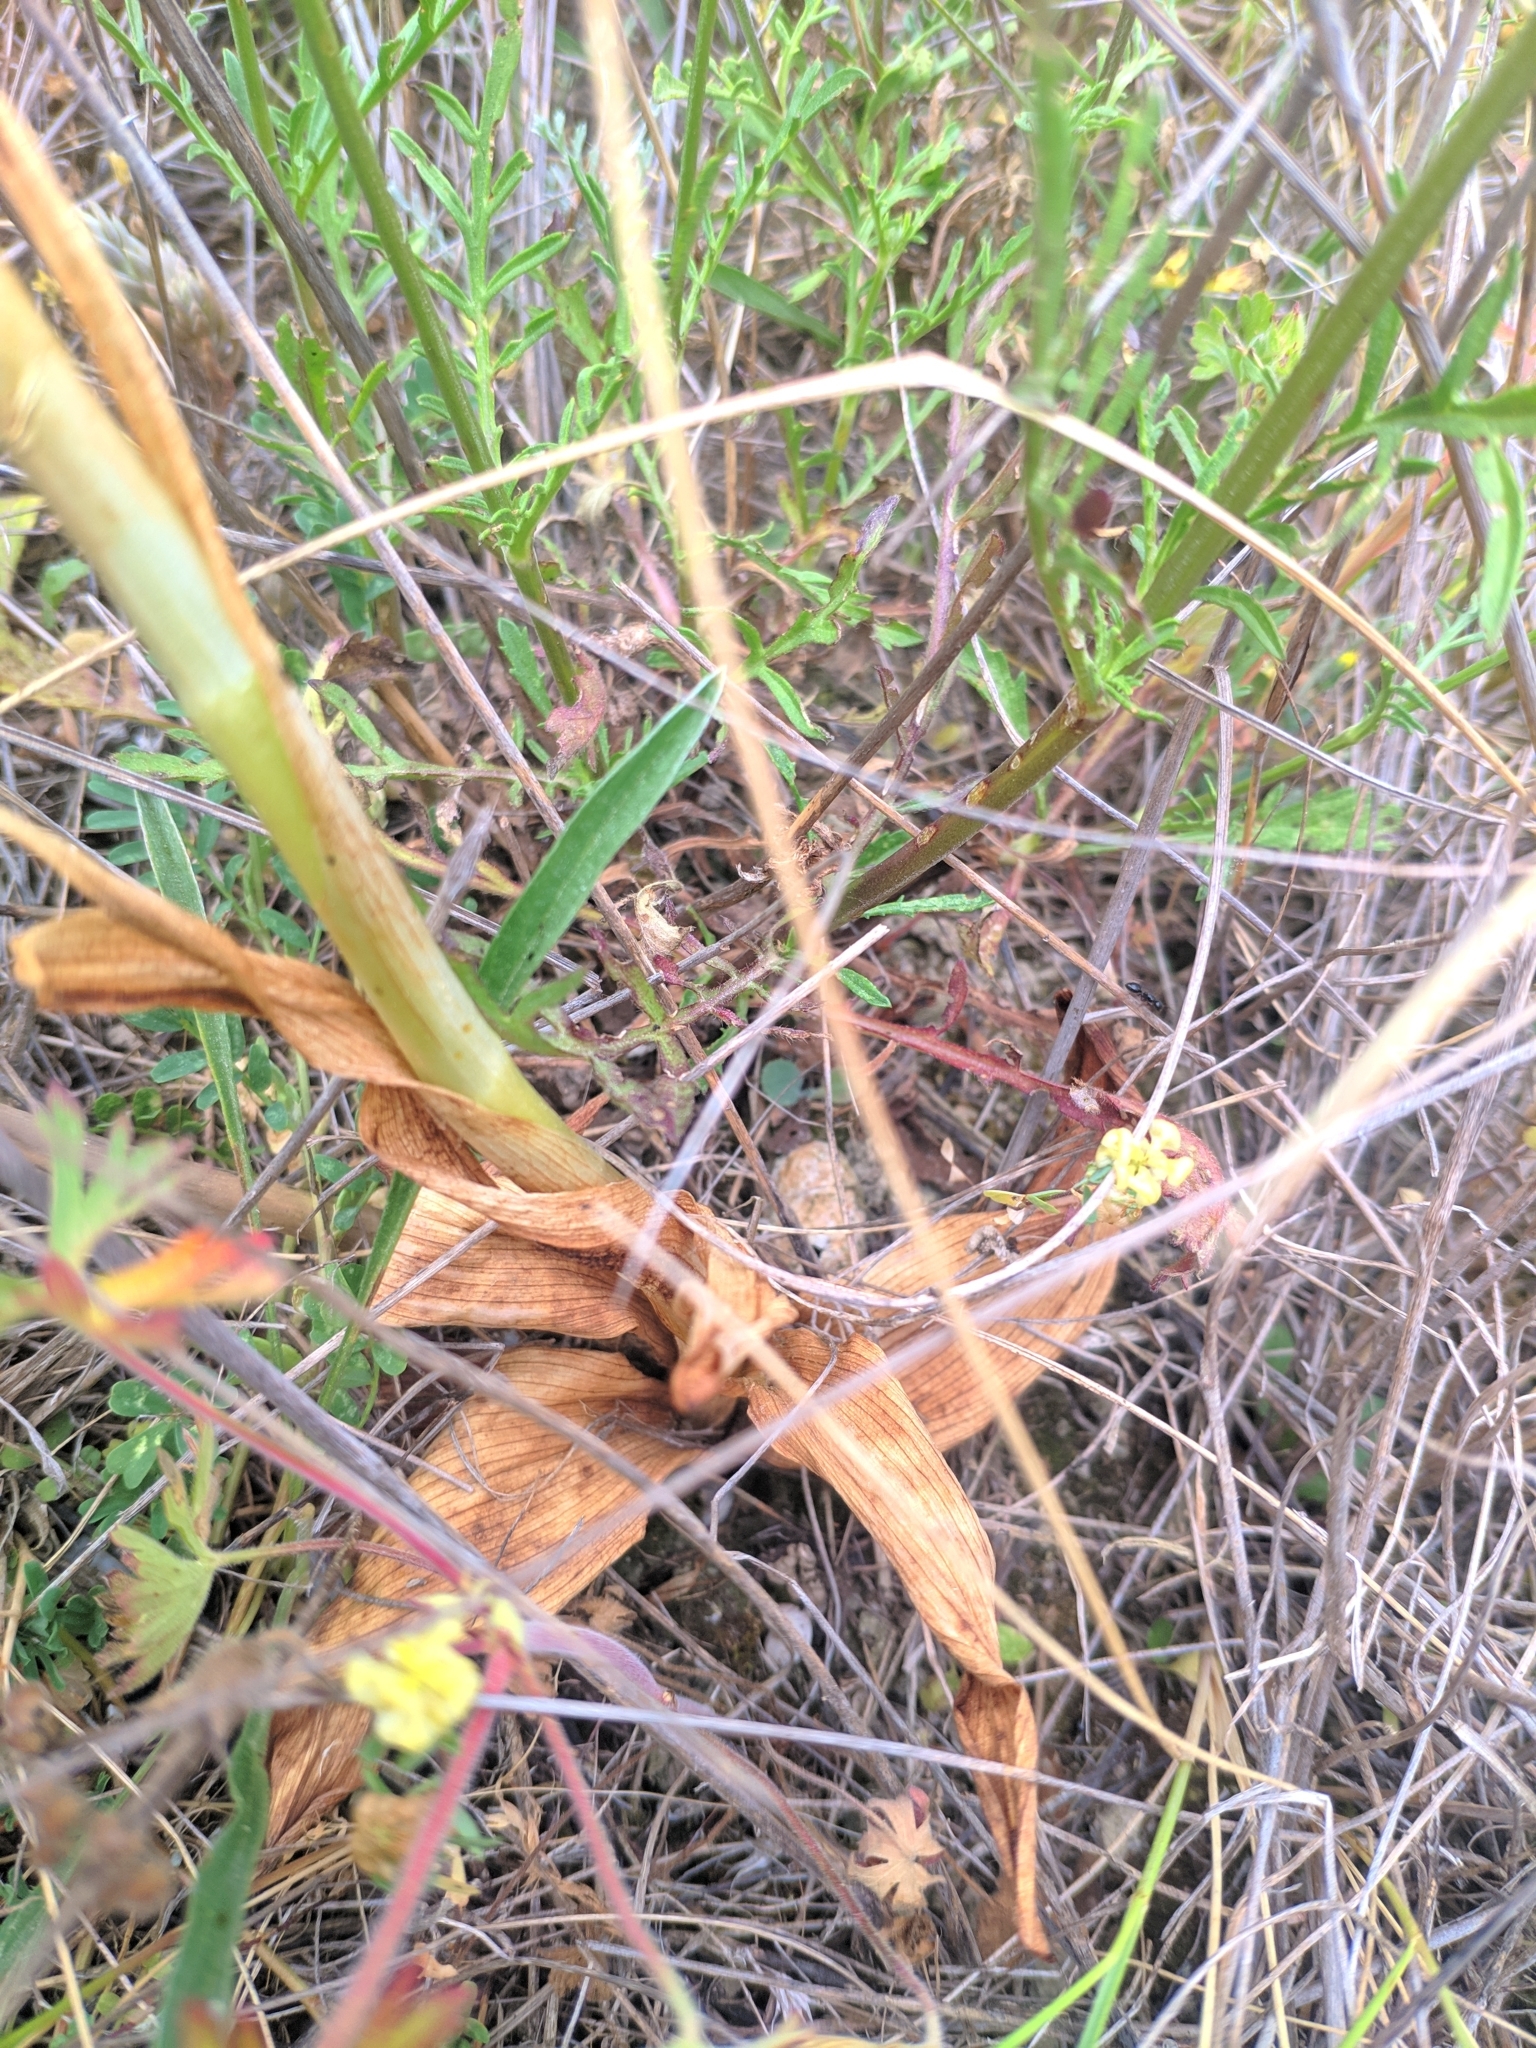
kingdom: Plantae
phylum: Tracheophyta
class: Liliopsida
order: Asparagales
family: Orchidaceae
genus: Himantoglossum
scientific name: Himantoglossum hircinum
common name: Lizard orchid
